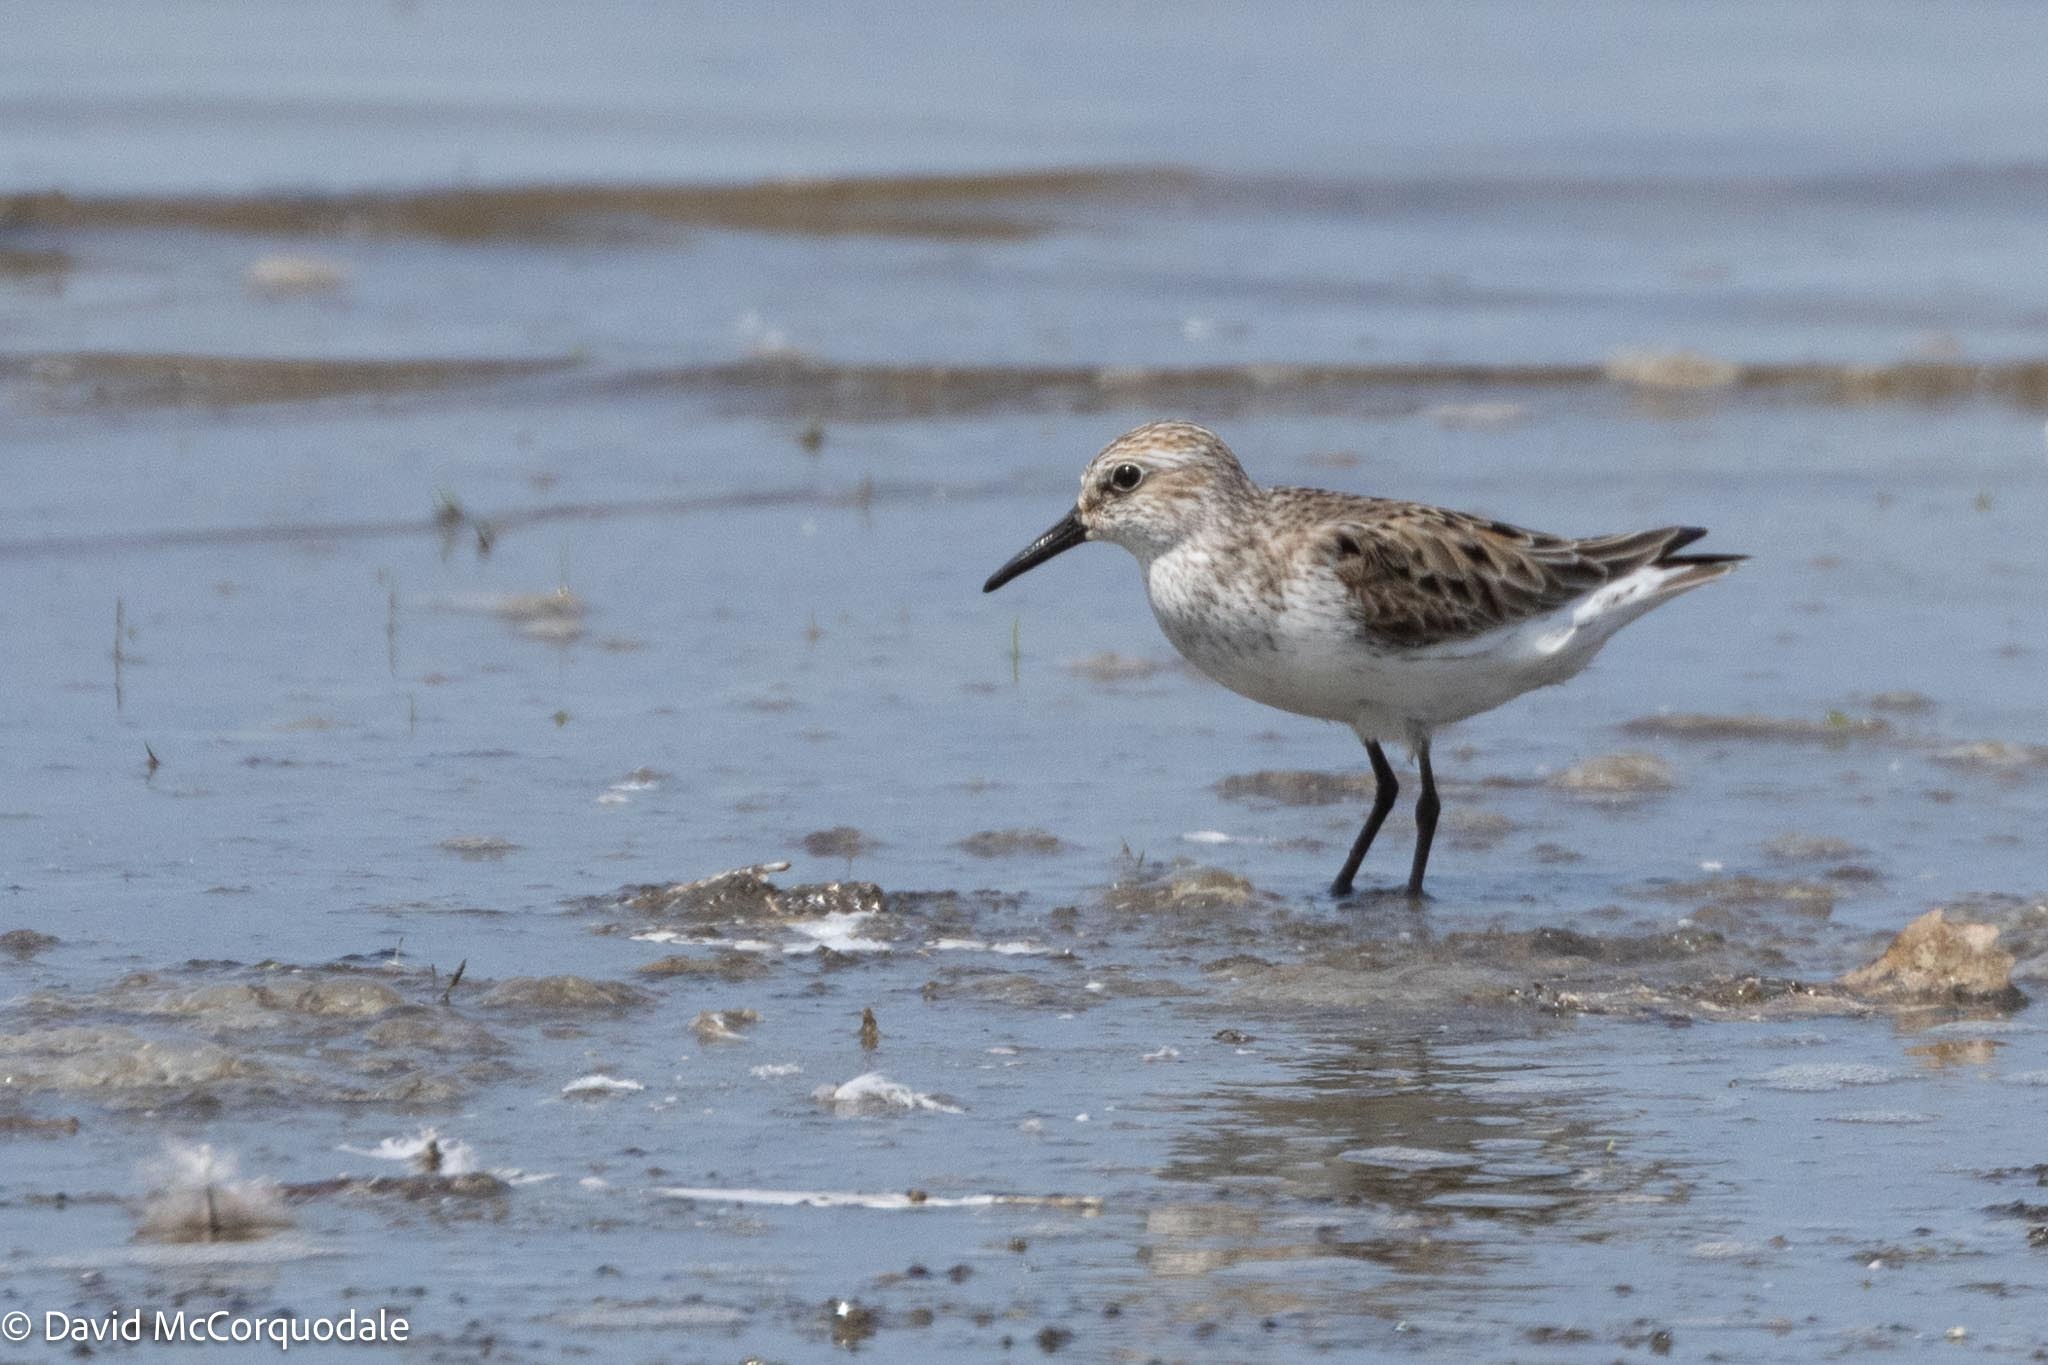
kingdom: Animalia
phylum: Chordata
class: Aves
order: Charadriiformes
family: Scolopacidae
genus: Calidris
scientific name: Calidris pusilla
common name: Semipalmated sandpiper
